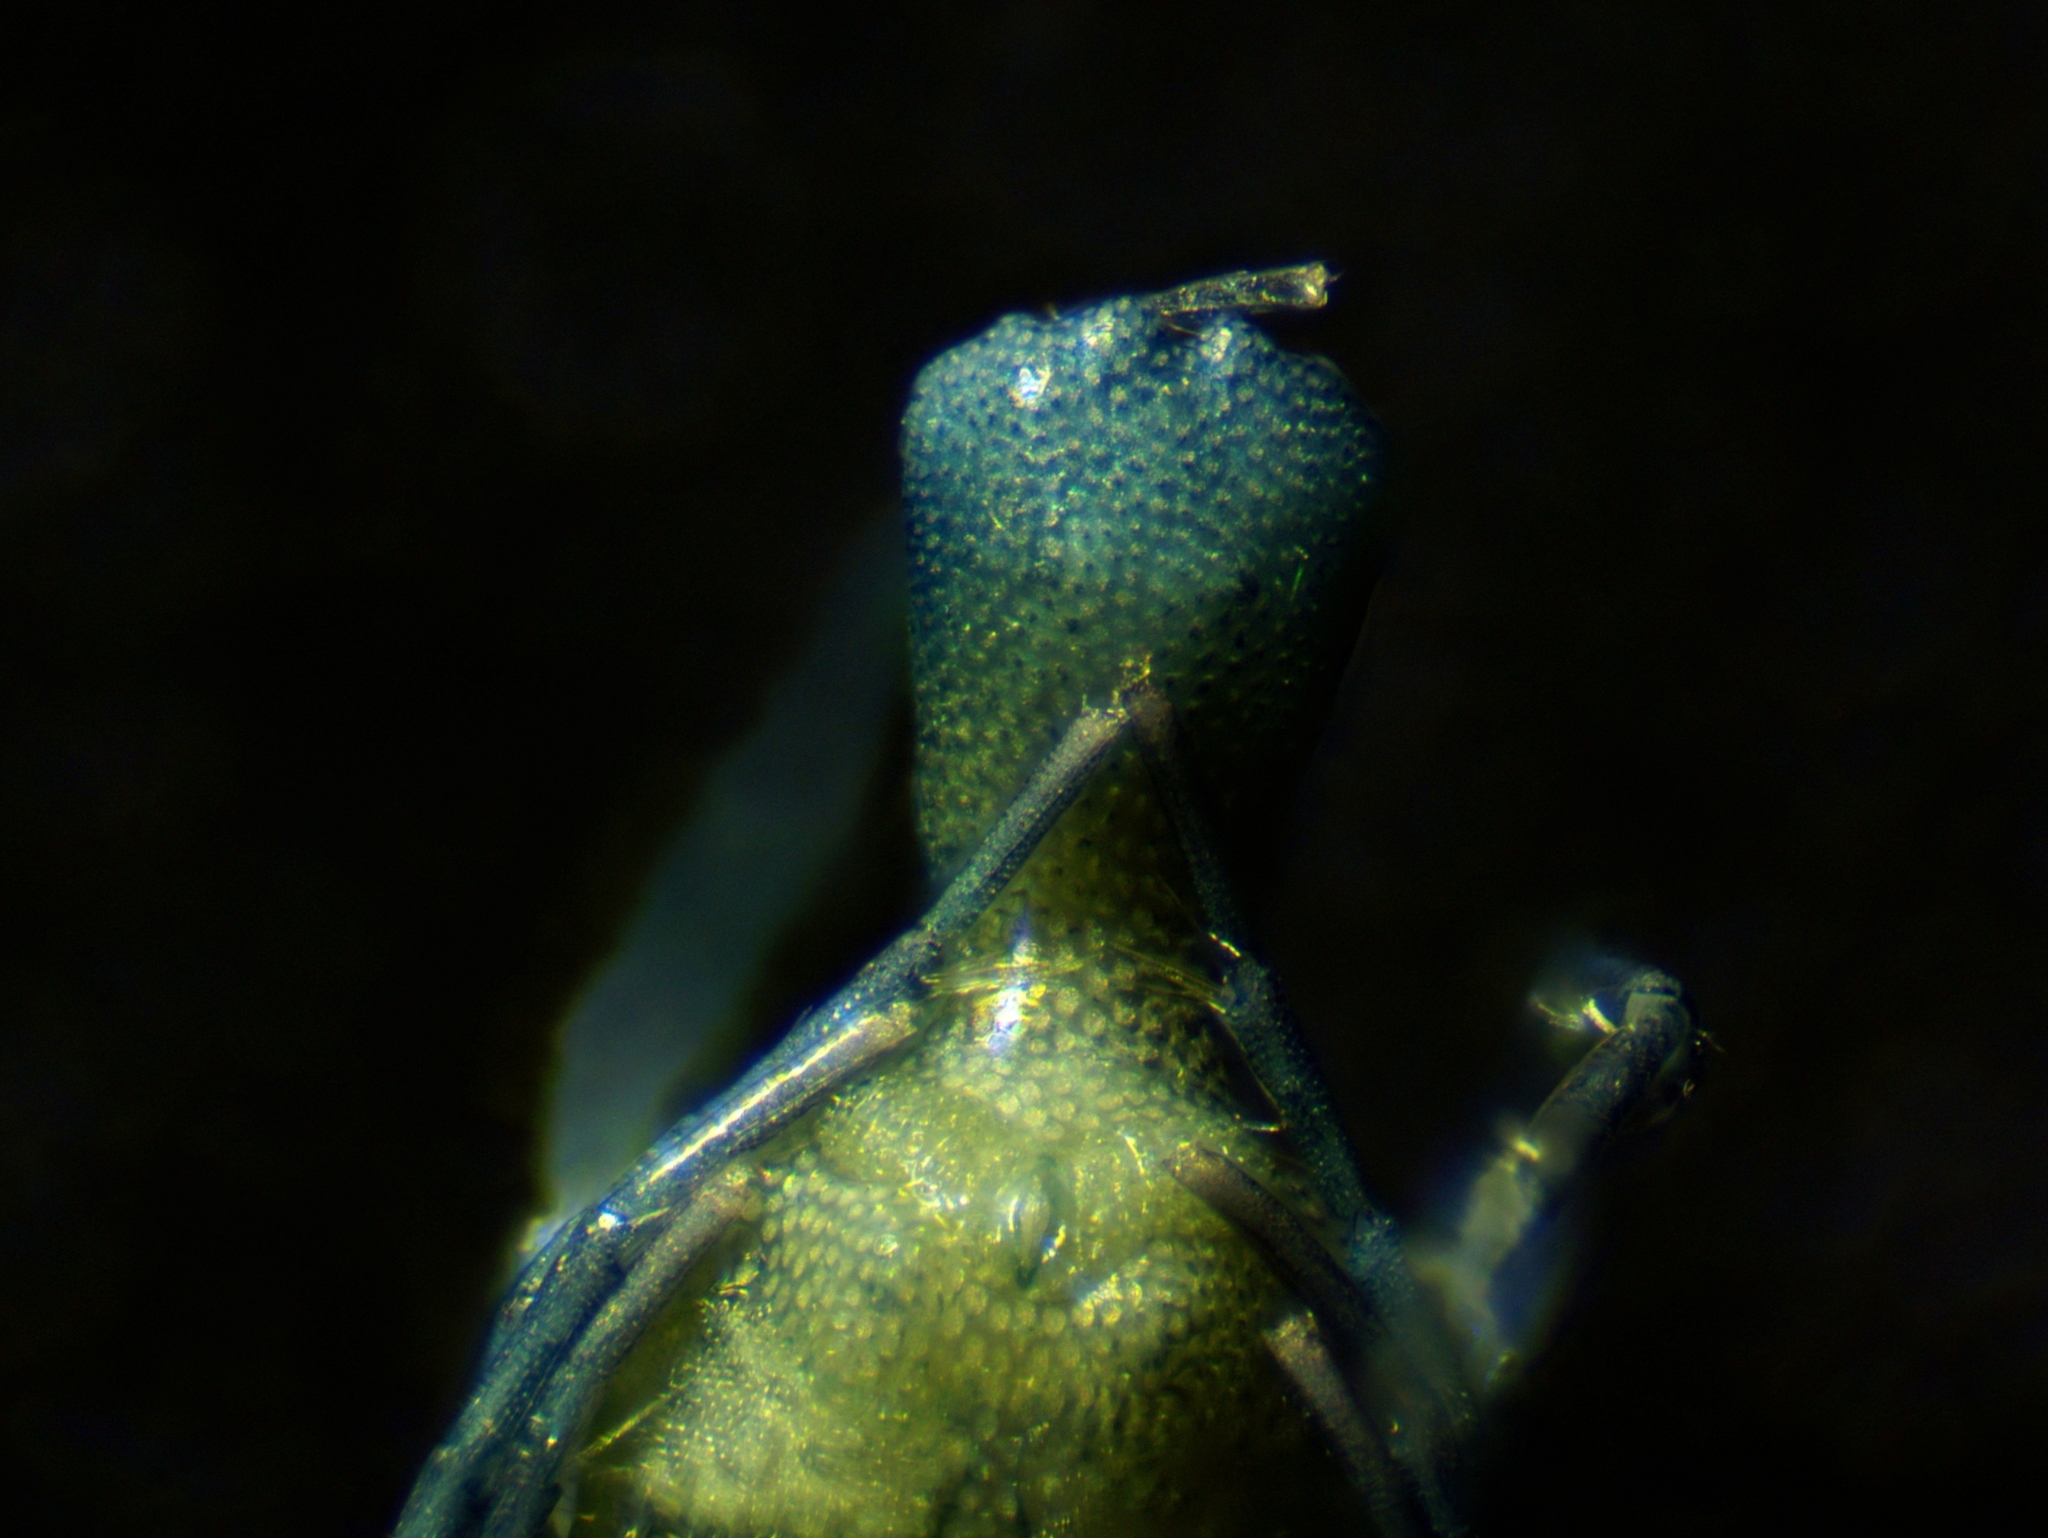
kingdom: Animalia
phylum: Arthropoda
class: Arachnida
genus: Megaluracarus
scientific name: Megaluracarus
